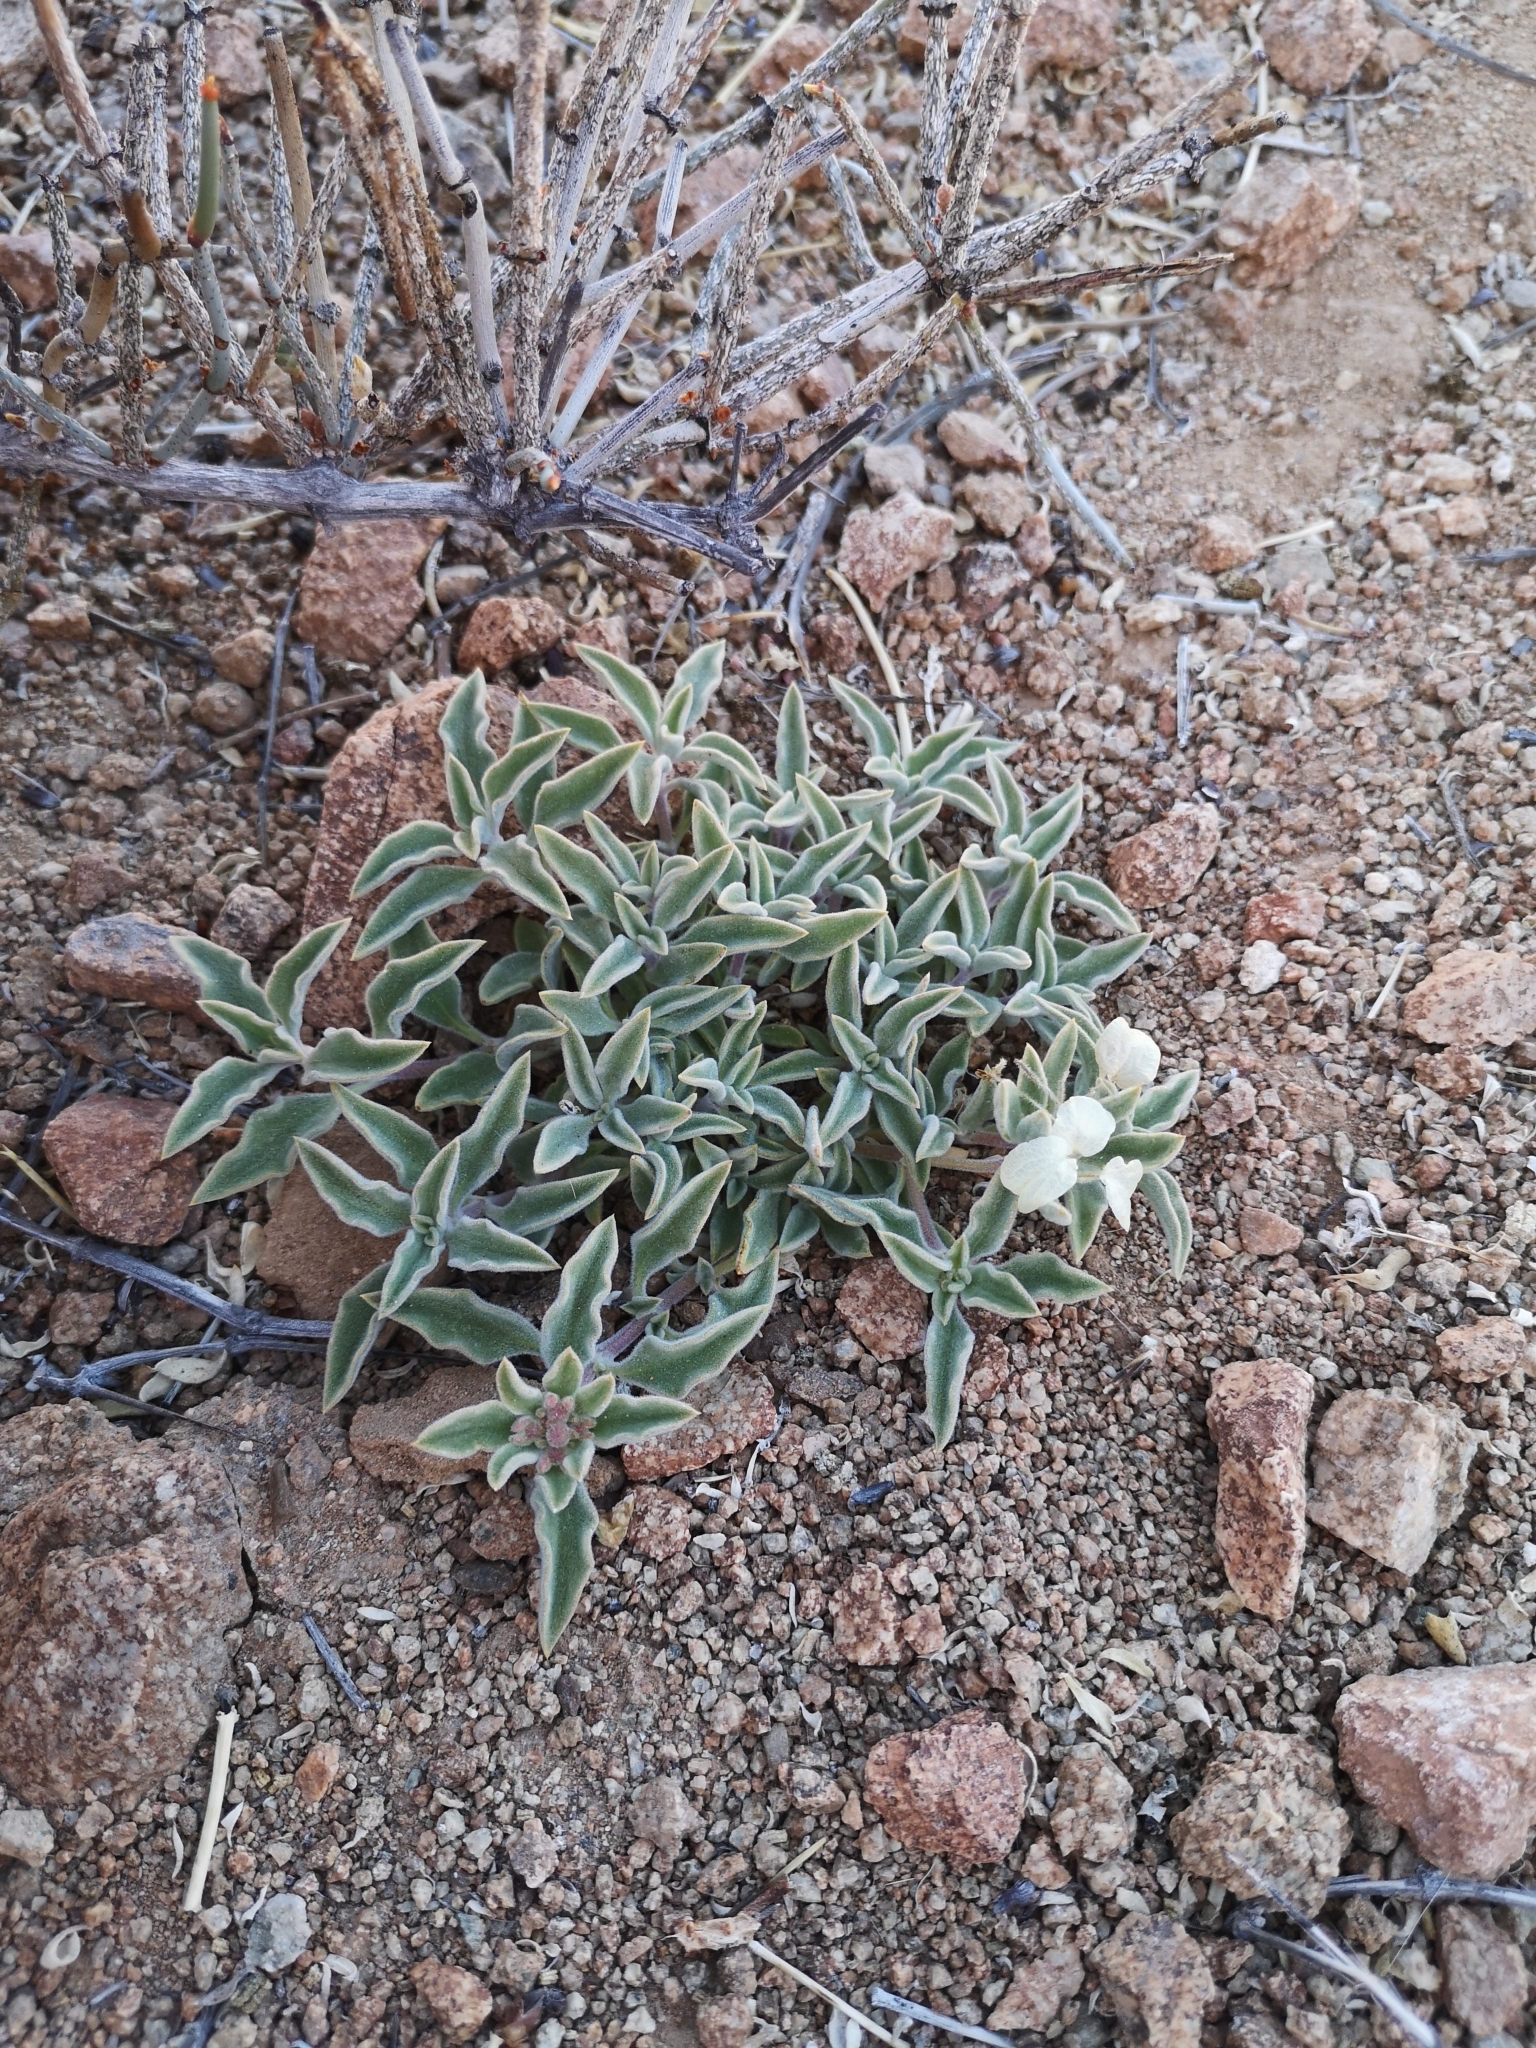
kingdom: Plantae
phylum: Tracheophyta
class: Magnoliopsida
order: Gentianales
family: Rubiaceae
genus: Cruckshanksia
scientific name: Cruckshanksia hymenodon
